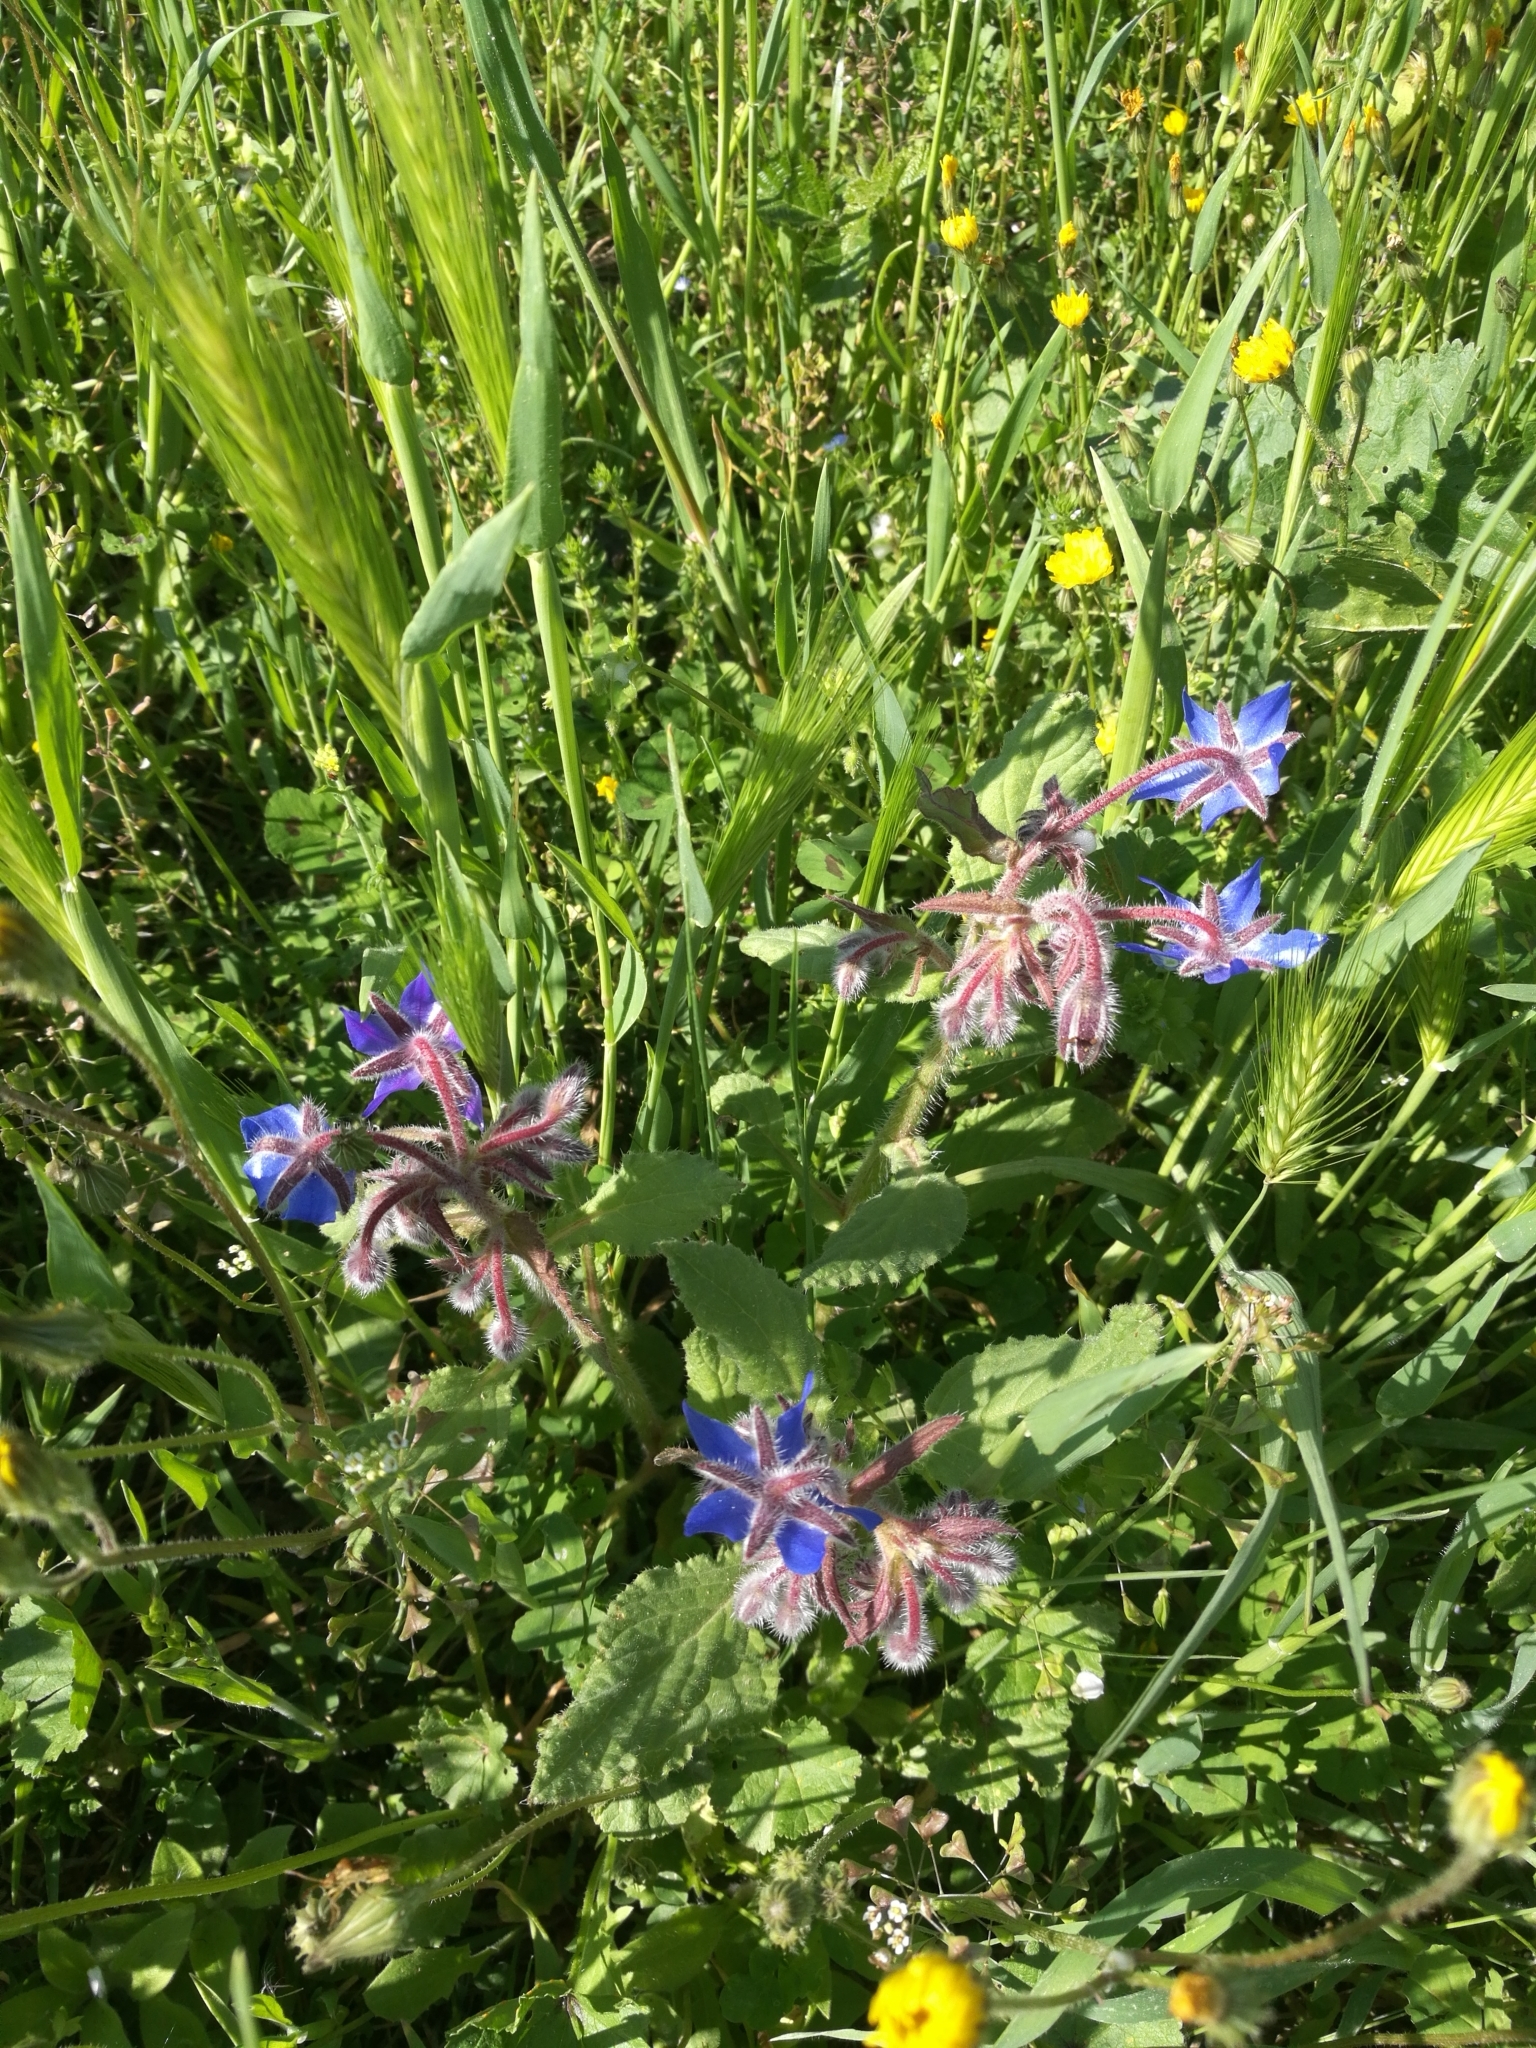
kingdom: Plantae
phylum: Tracheophyta
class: Magnoliopsida
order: Boraginales
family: Boraginaceae
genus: Borago
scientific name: Borago officinalis
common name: Borage
